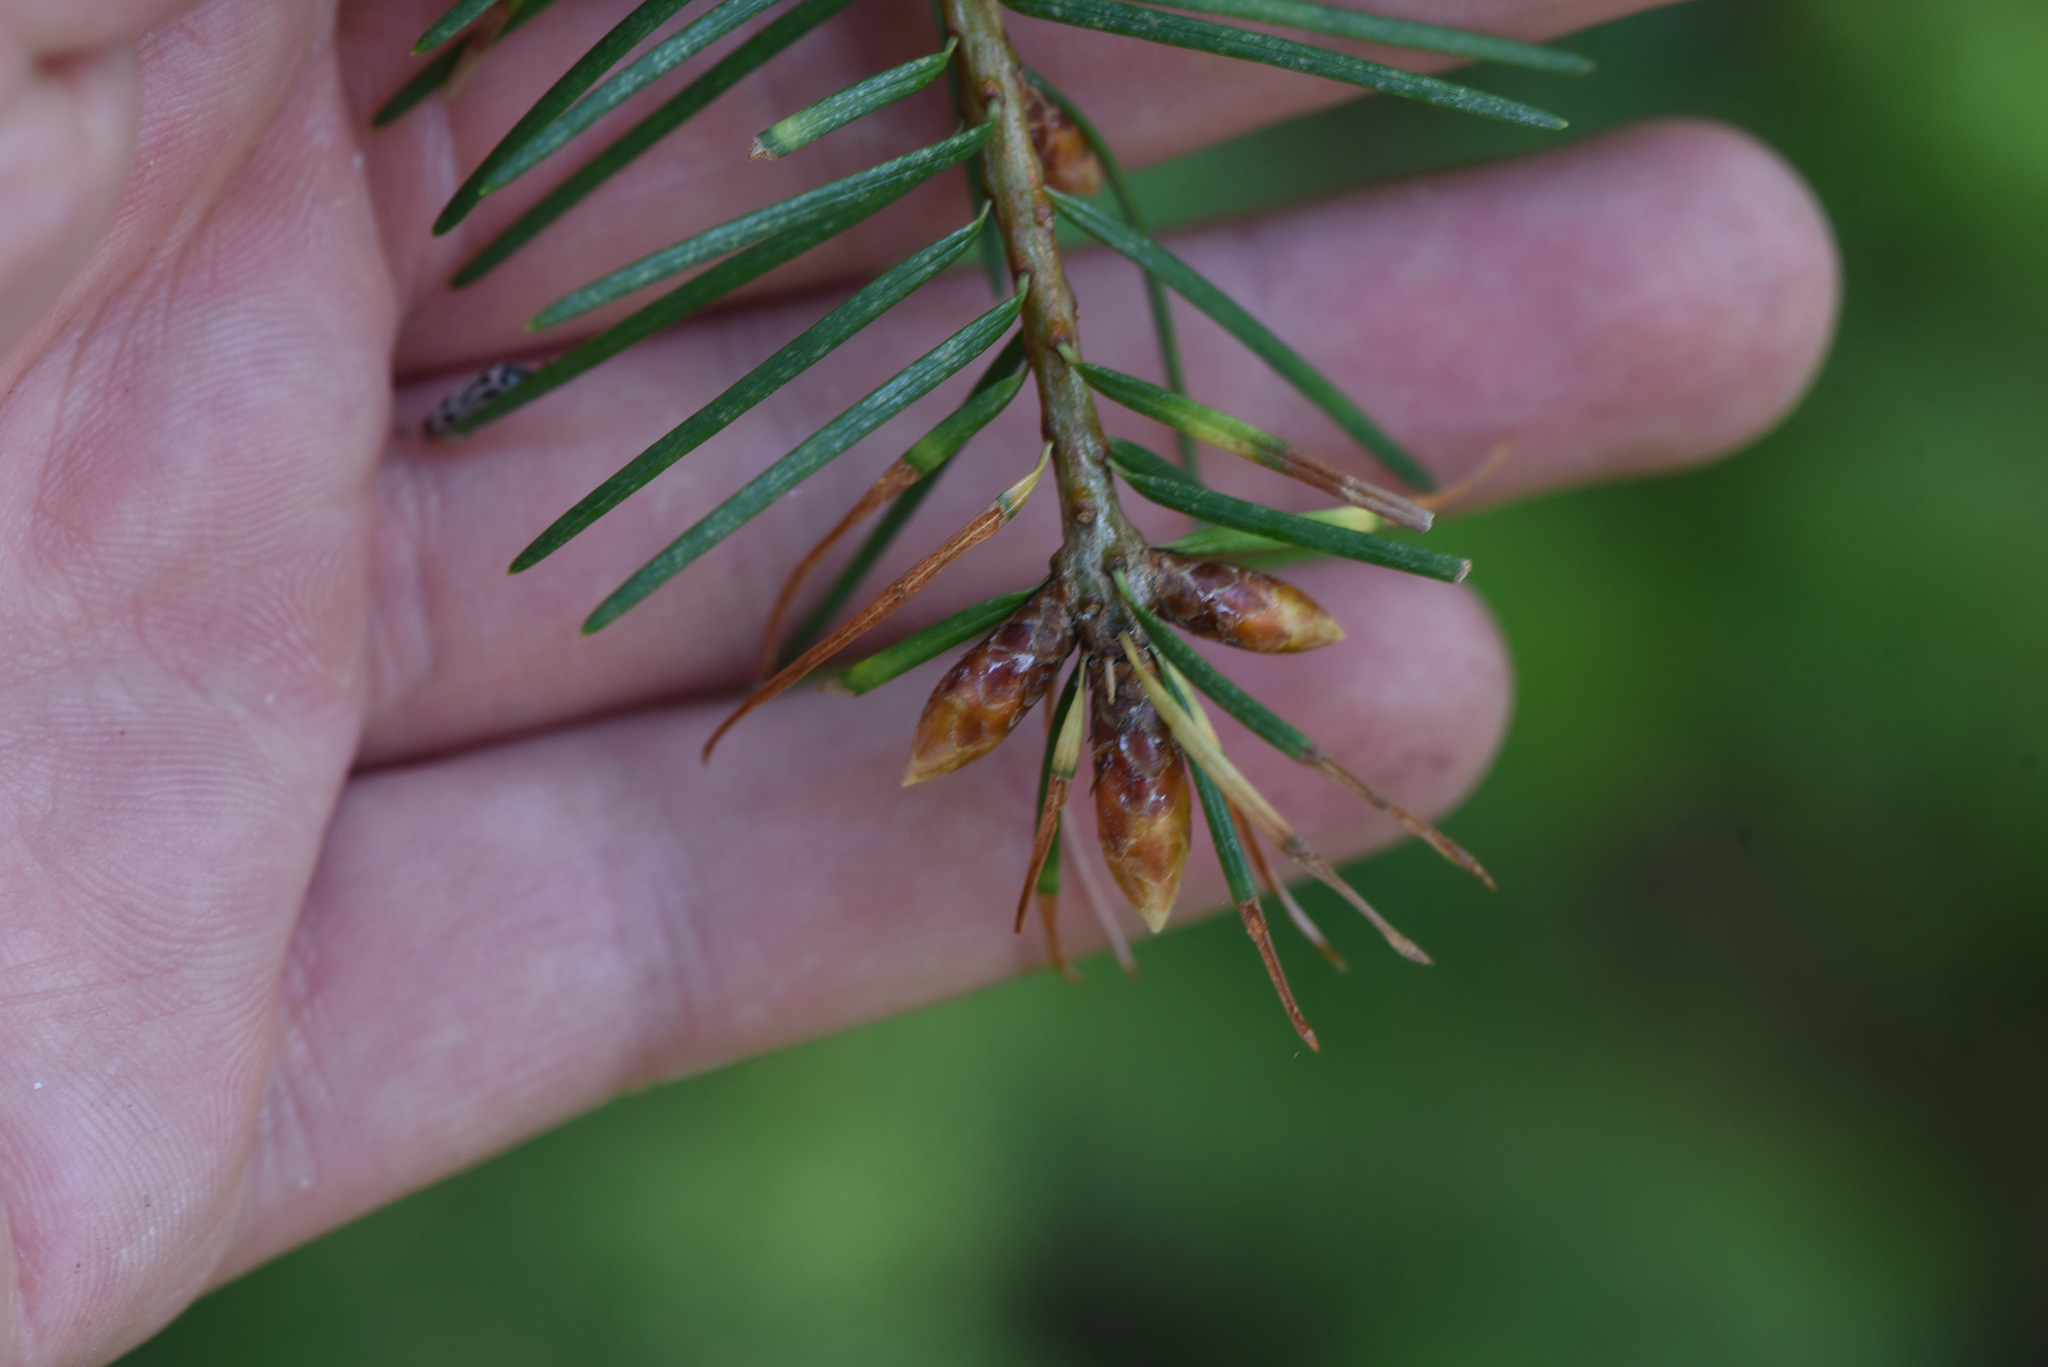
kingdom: Plantae
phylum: Tracheophyta
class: Pinopsida
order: Pinales
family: Pinaceae
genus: Pseudotsuga
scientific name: Pseudotsuga menziesii
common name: Douglas fir
